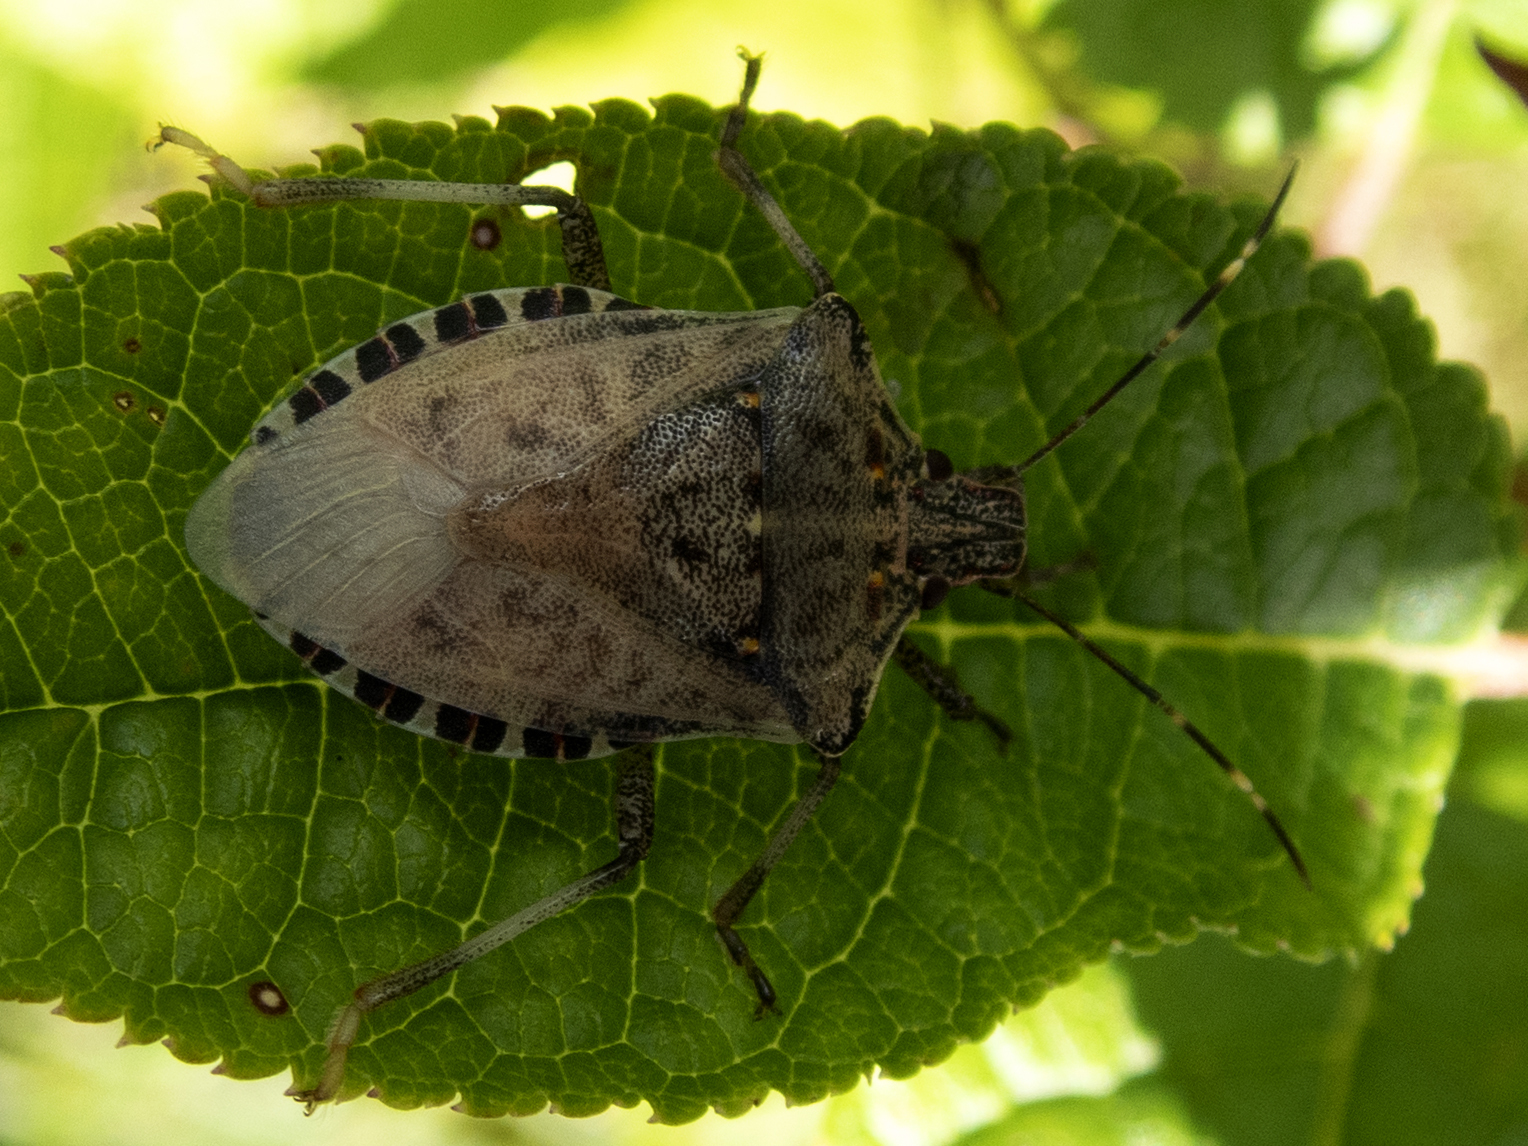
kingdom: Animalia
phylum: Arthropoda
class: Insecta
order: Hemiptera
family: Pentatomidae
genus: Halyomorpha
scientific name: Halyomorpha halys
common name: Brown marmorated stink bug
